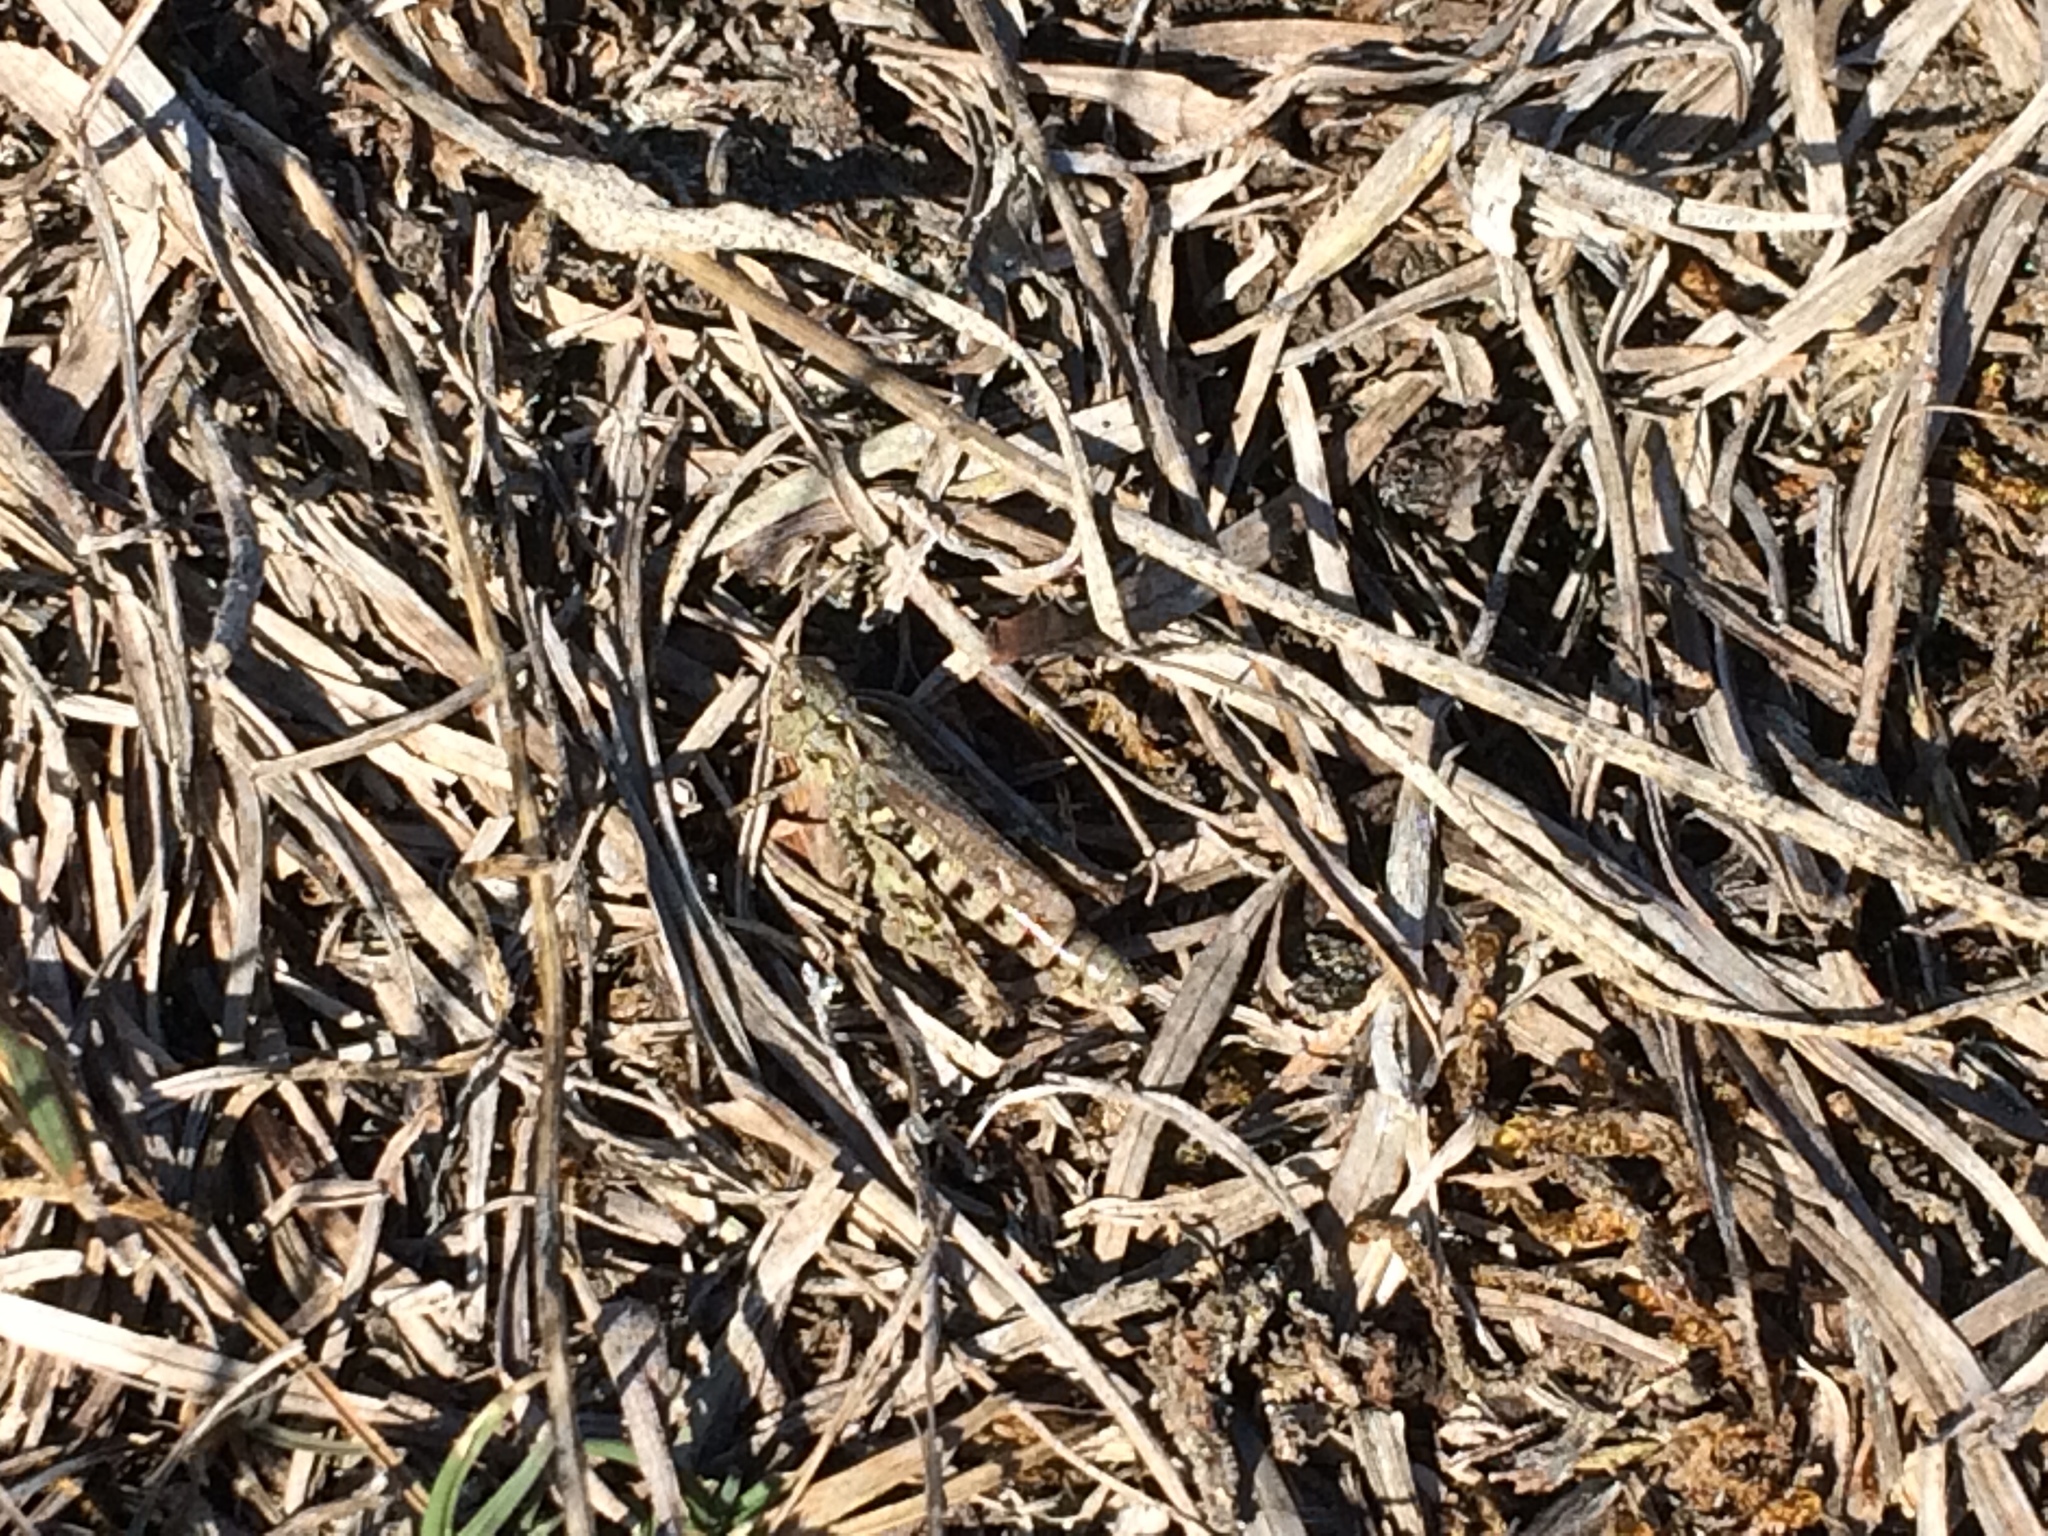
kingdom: Animalia
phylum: Arthropoda
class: Insecta
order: Orthoptera
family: Acrididae
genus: Myrmeleotettix
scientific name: Myrmeleotettix maculatus
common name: Mottled grasshopper
